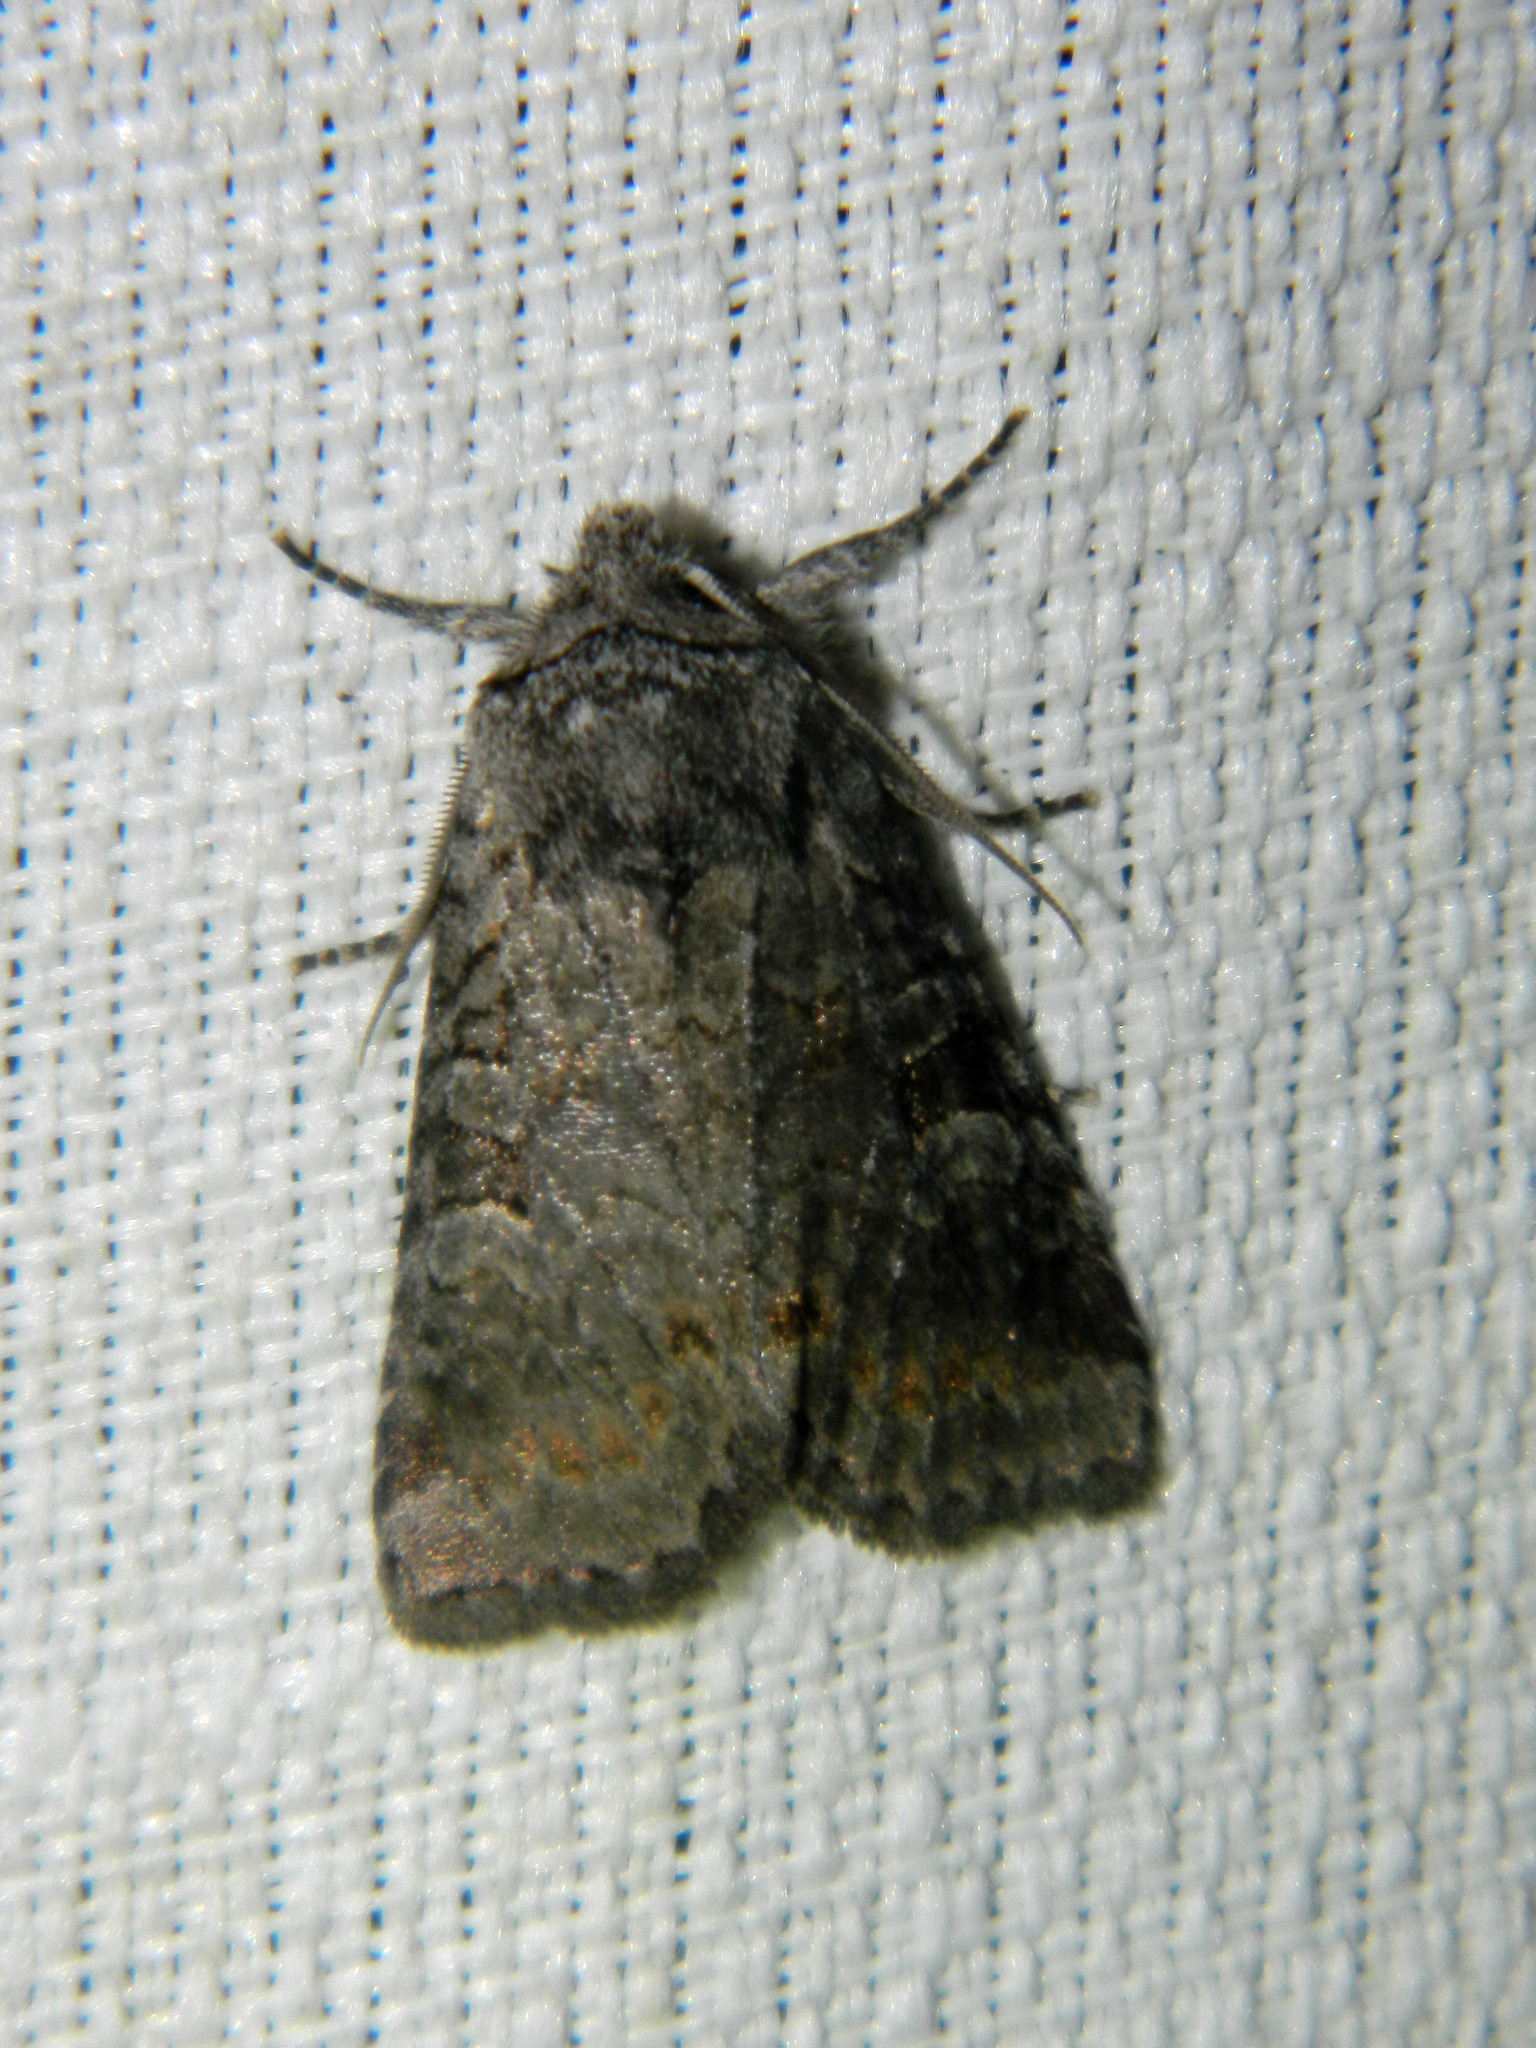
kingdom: Animalia
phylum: Arthropoda
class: Insecta
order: Lepidoptera
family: Noctuidae
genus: Brachylomia
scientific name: Brachylomia algens
